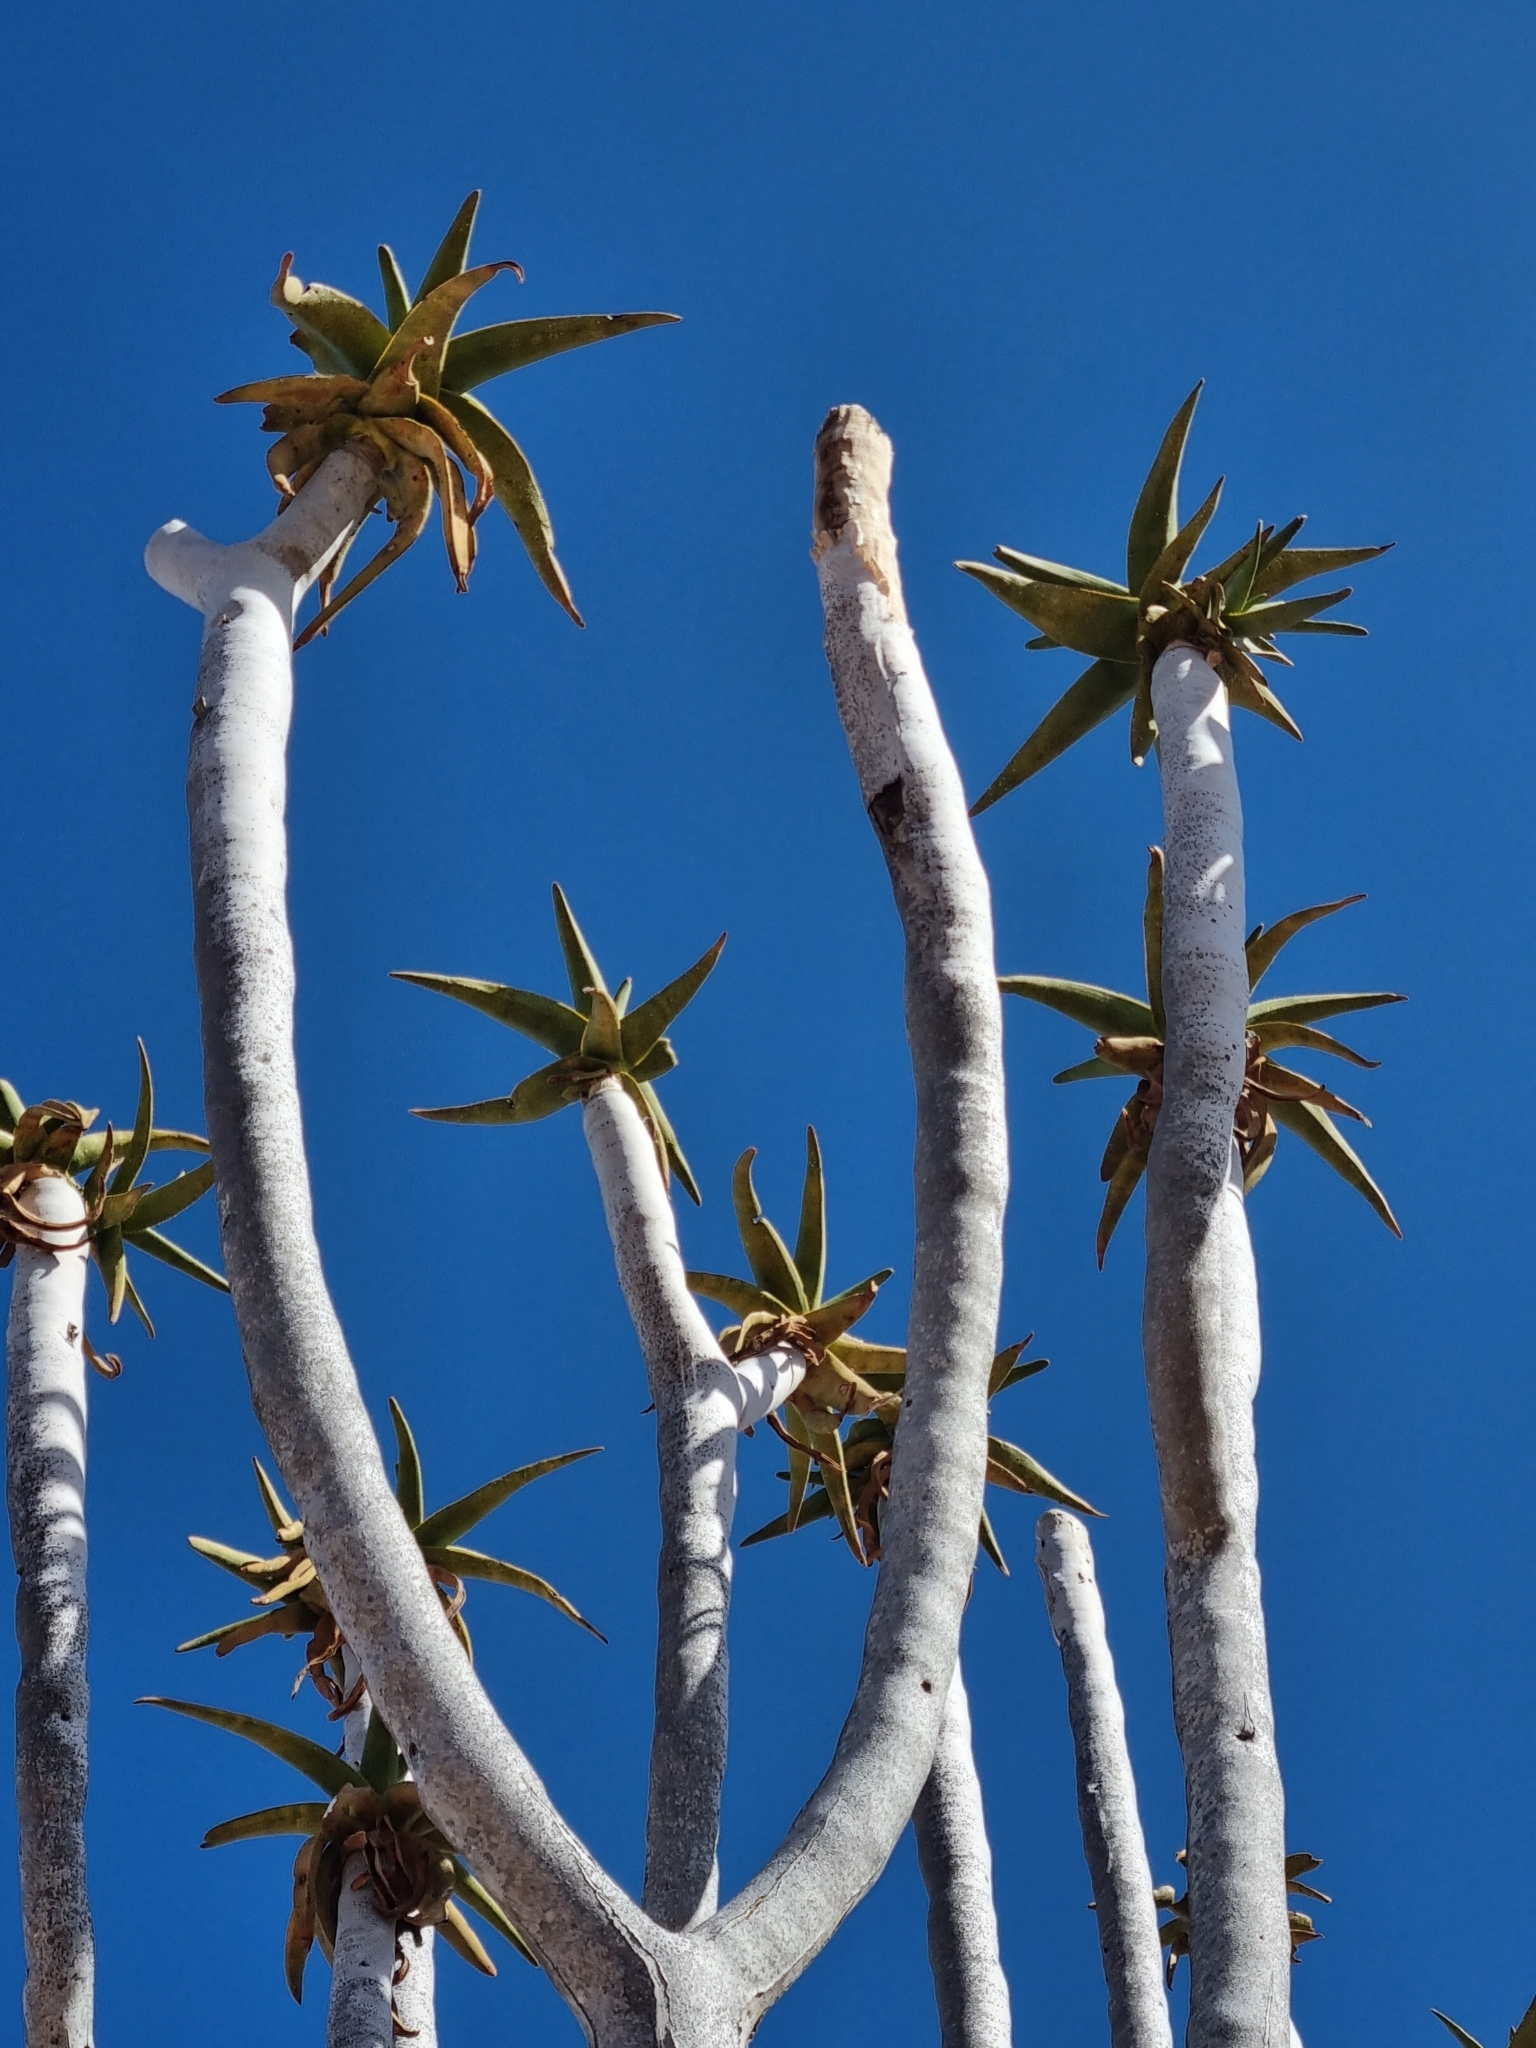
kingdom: Plantae
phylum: Tracheophyta
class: Liliopsida
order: Asparagales
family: Asphodelaceae
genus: Aloidendron
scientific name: Aloidendron dichotomum
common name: Quiver tree
